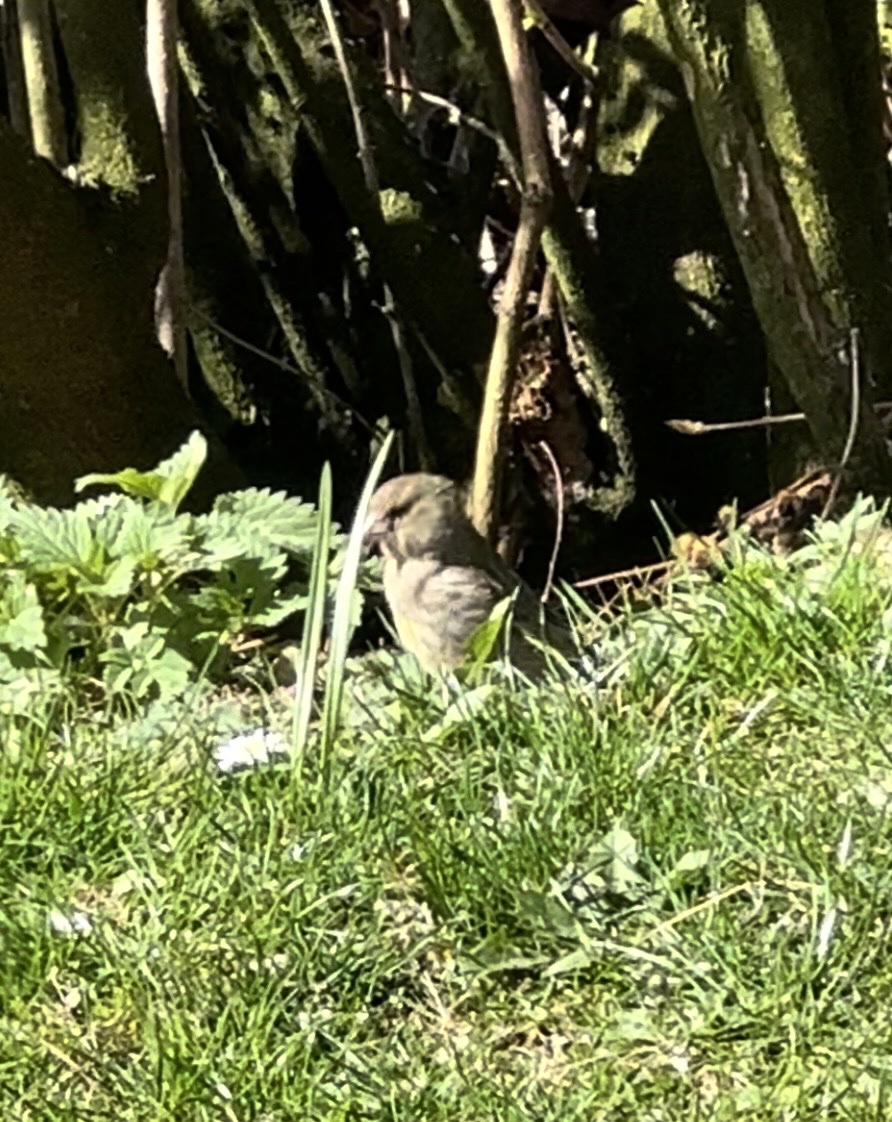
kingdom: Plantae
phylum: Tracheophyta
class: Liliopsida
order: Poales
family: Poaceae
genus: Chloris
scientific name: Chloris chloris
